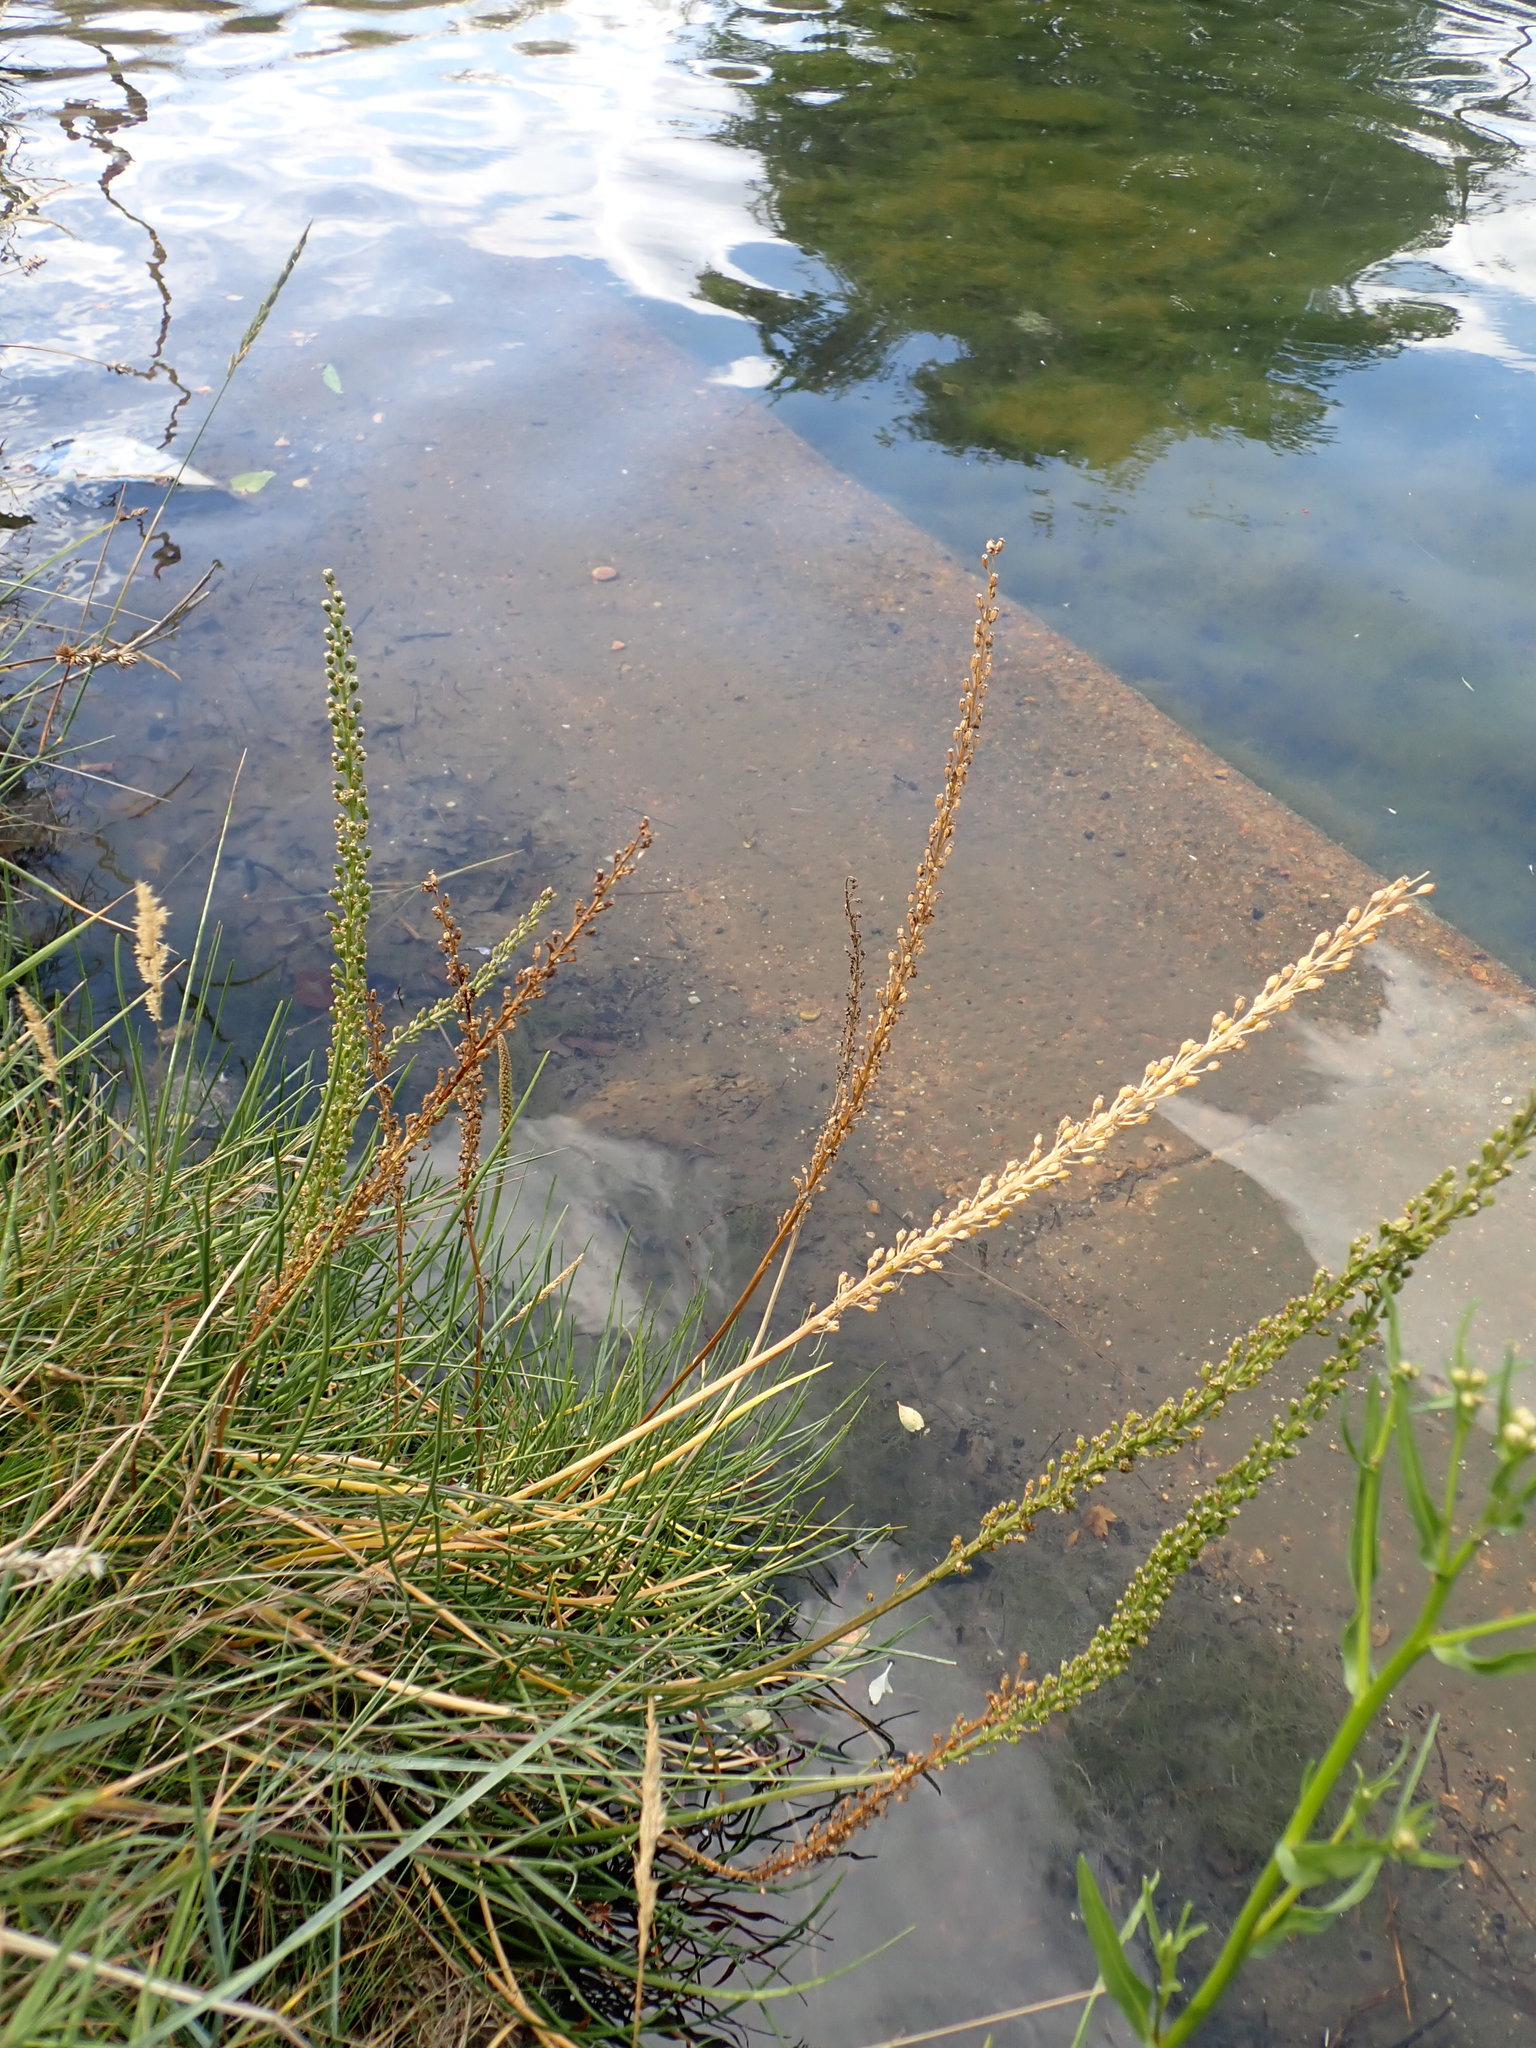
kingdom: Plantae
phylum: Tracheophyta
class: Liliopsida
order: Alismatales
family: Juncaginaceae
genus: Triglochin
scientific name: Triglochin maritima
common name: Sea arrowgrass
